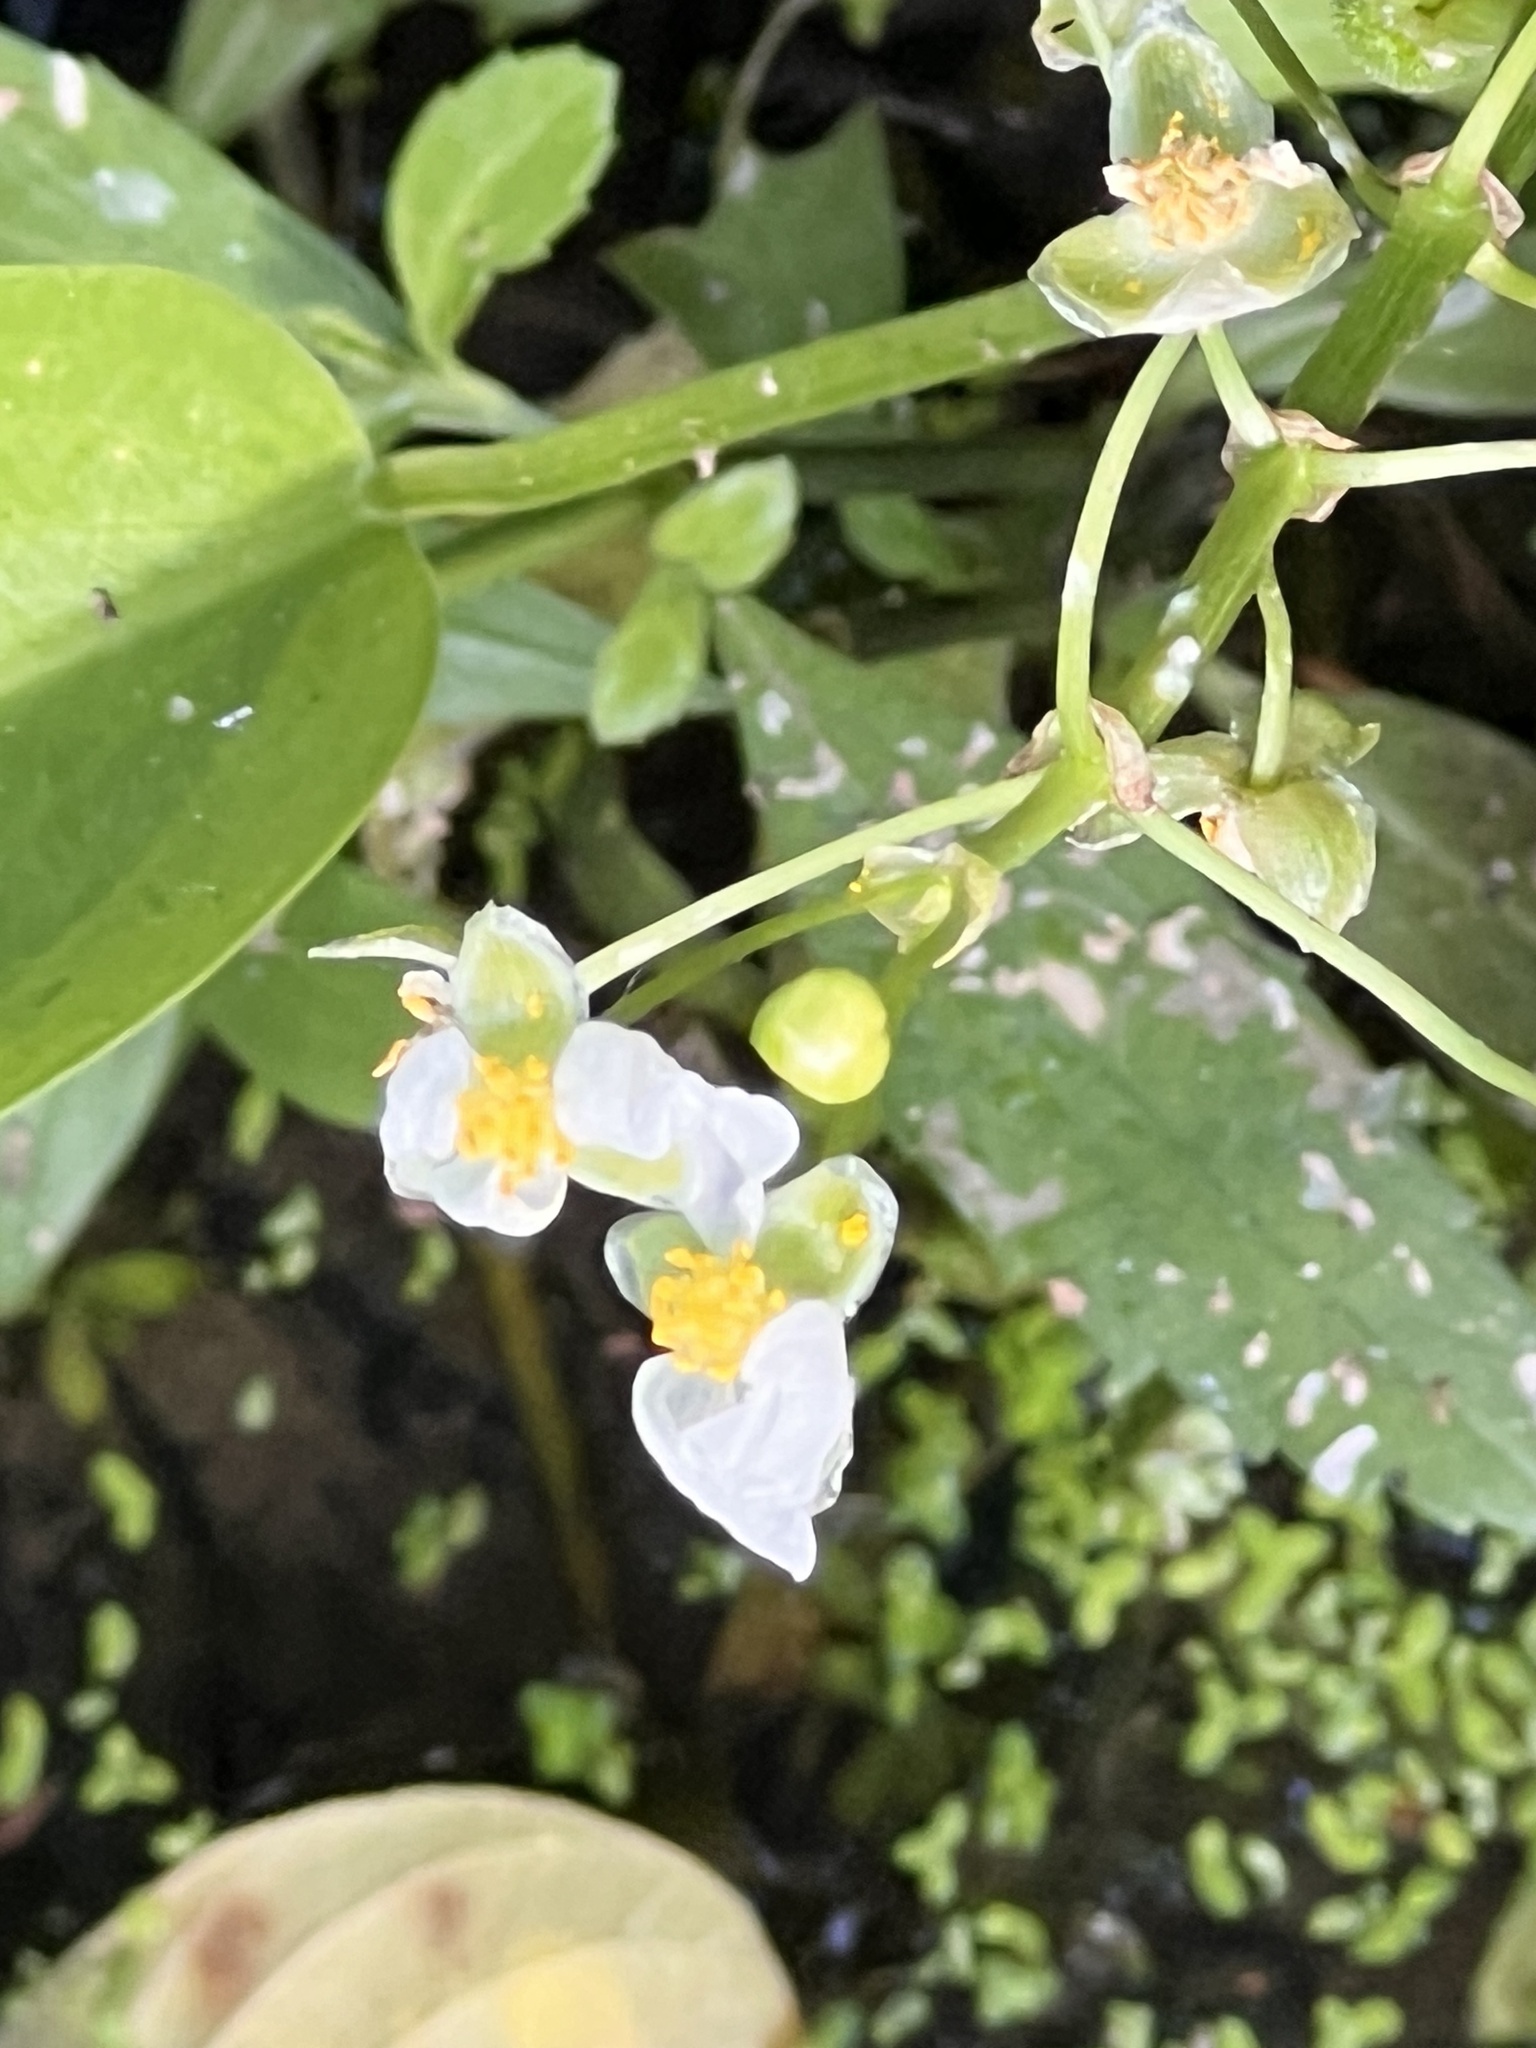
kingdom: Plantae
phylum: Tracheophyta
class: Liliopsida
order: Alismatales
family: Alismataceae
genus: Sagittaria
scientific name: Sagittaria platyphylla
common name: Broad-leaf arrowhead
